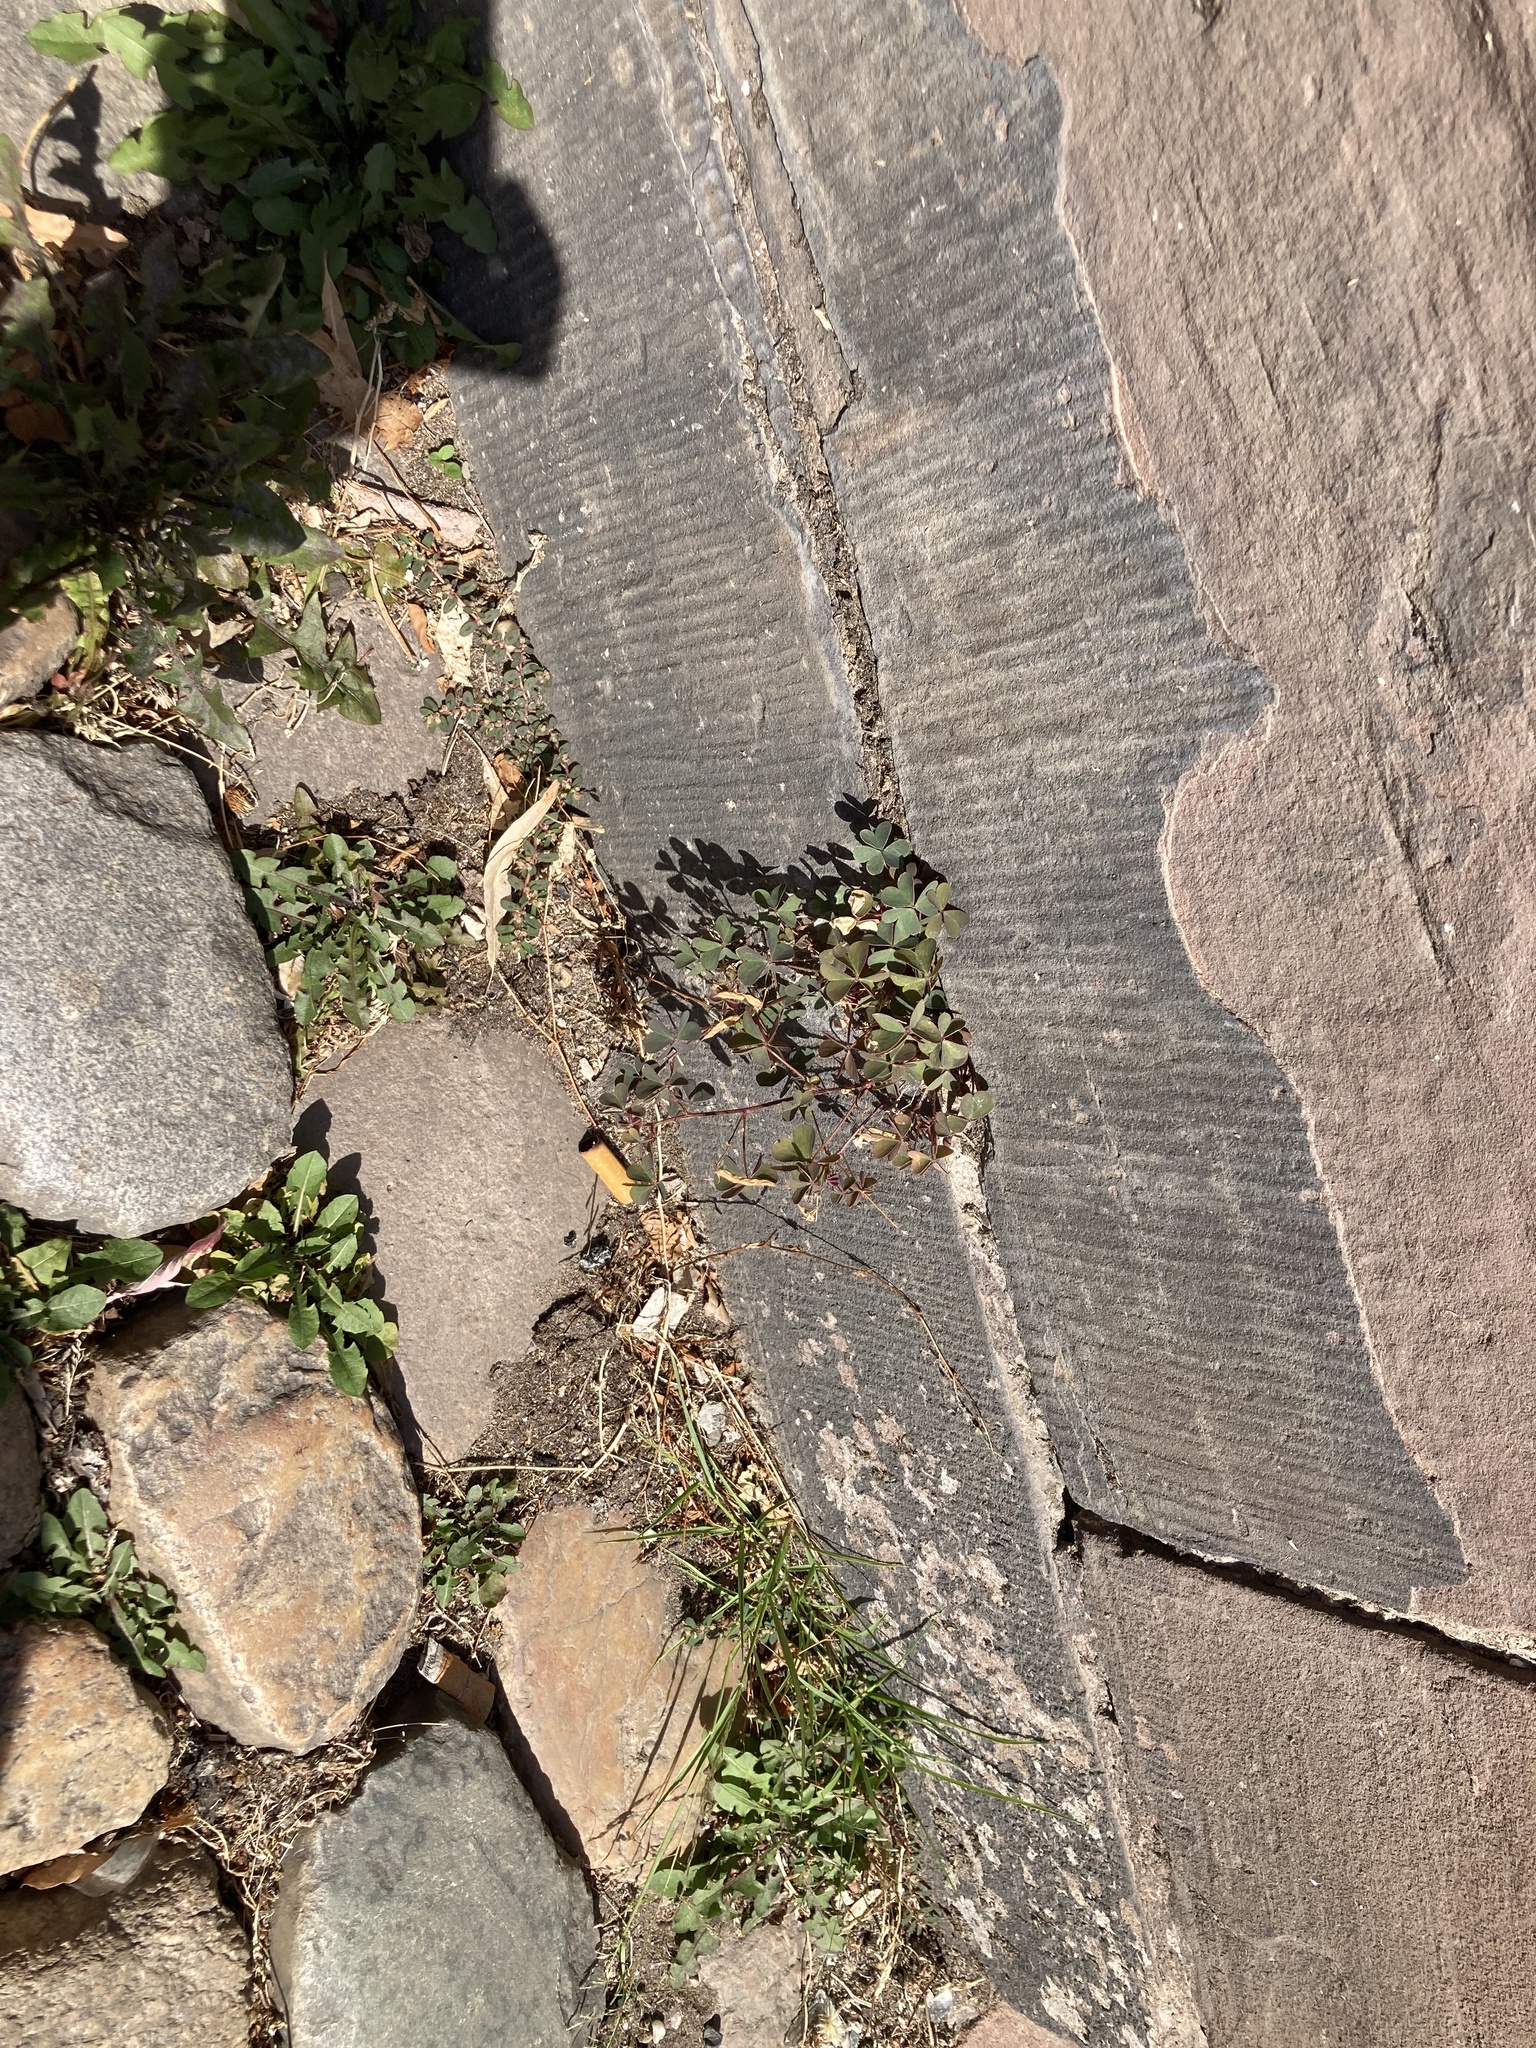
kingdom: Plantae
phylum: Tracheophyta
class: Magnoliopsida
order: Oxalidales
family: Oxalidaceae
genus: Oxalis
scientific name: Oxalis corniculata
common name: Procumbent yellow-sorrel
